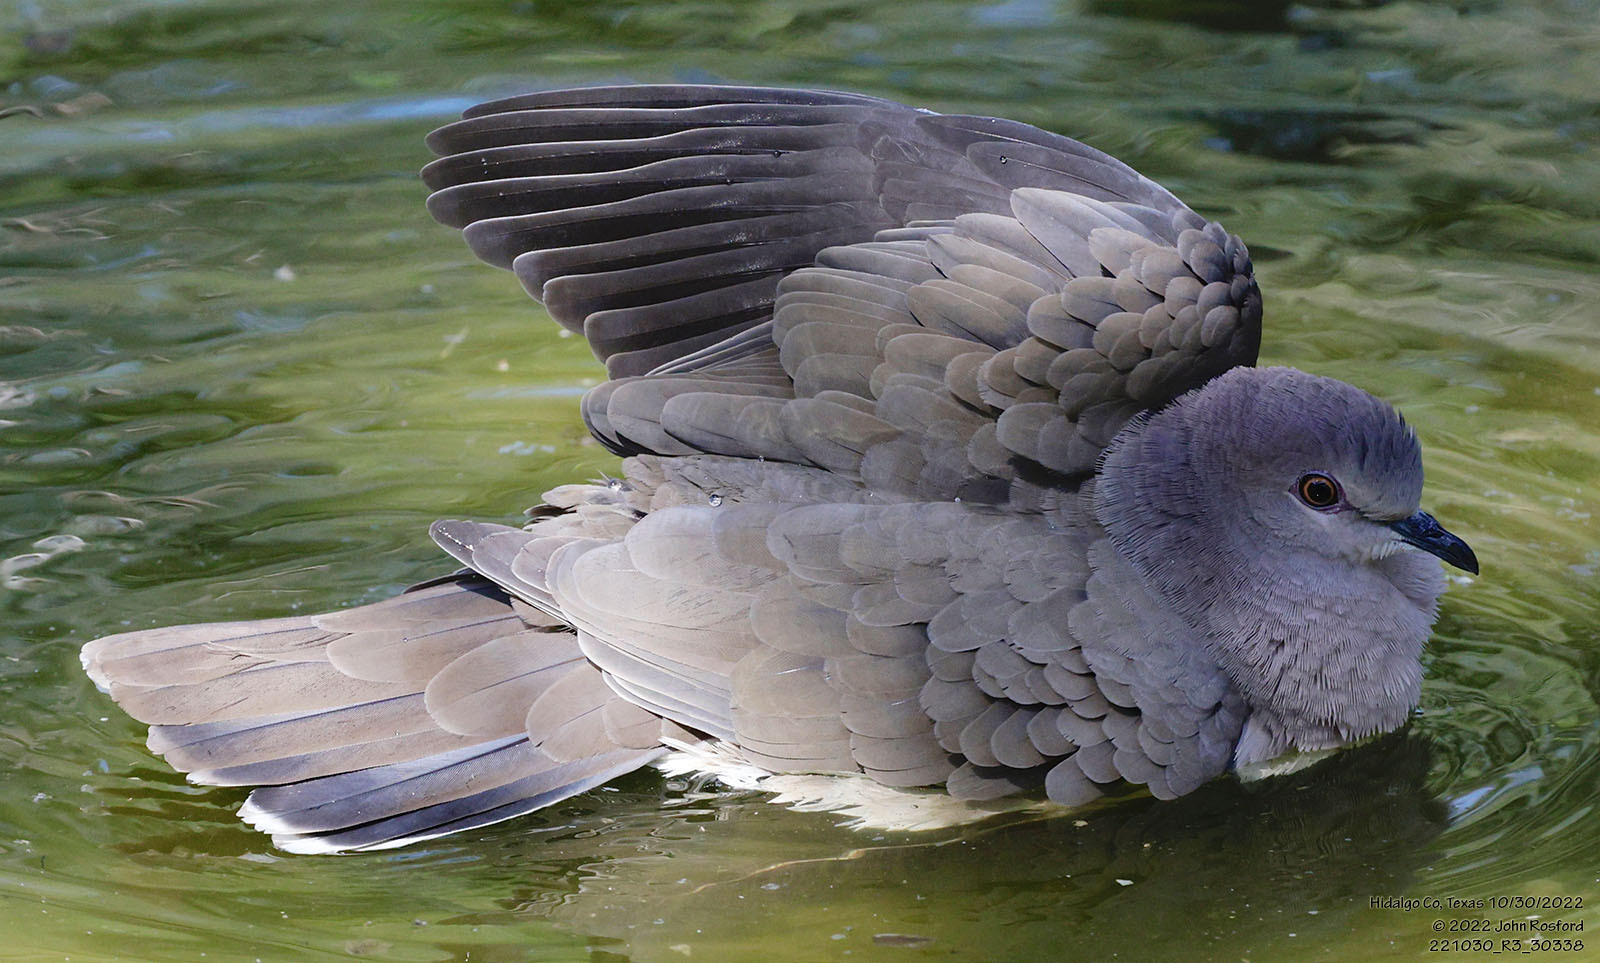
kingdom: Animalia
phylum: Chordata
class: Aves
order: Columbiformes
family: Columbidae
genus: Leptotila
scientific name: Leptotila verreauxi
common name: White-tipped dove
